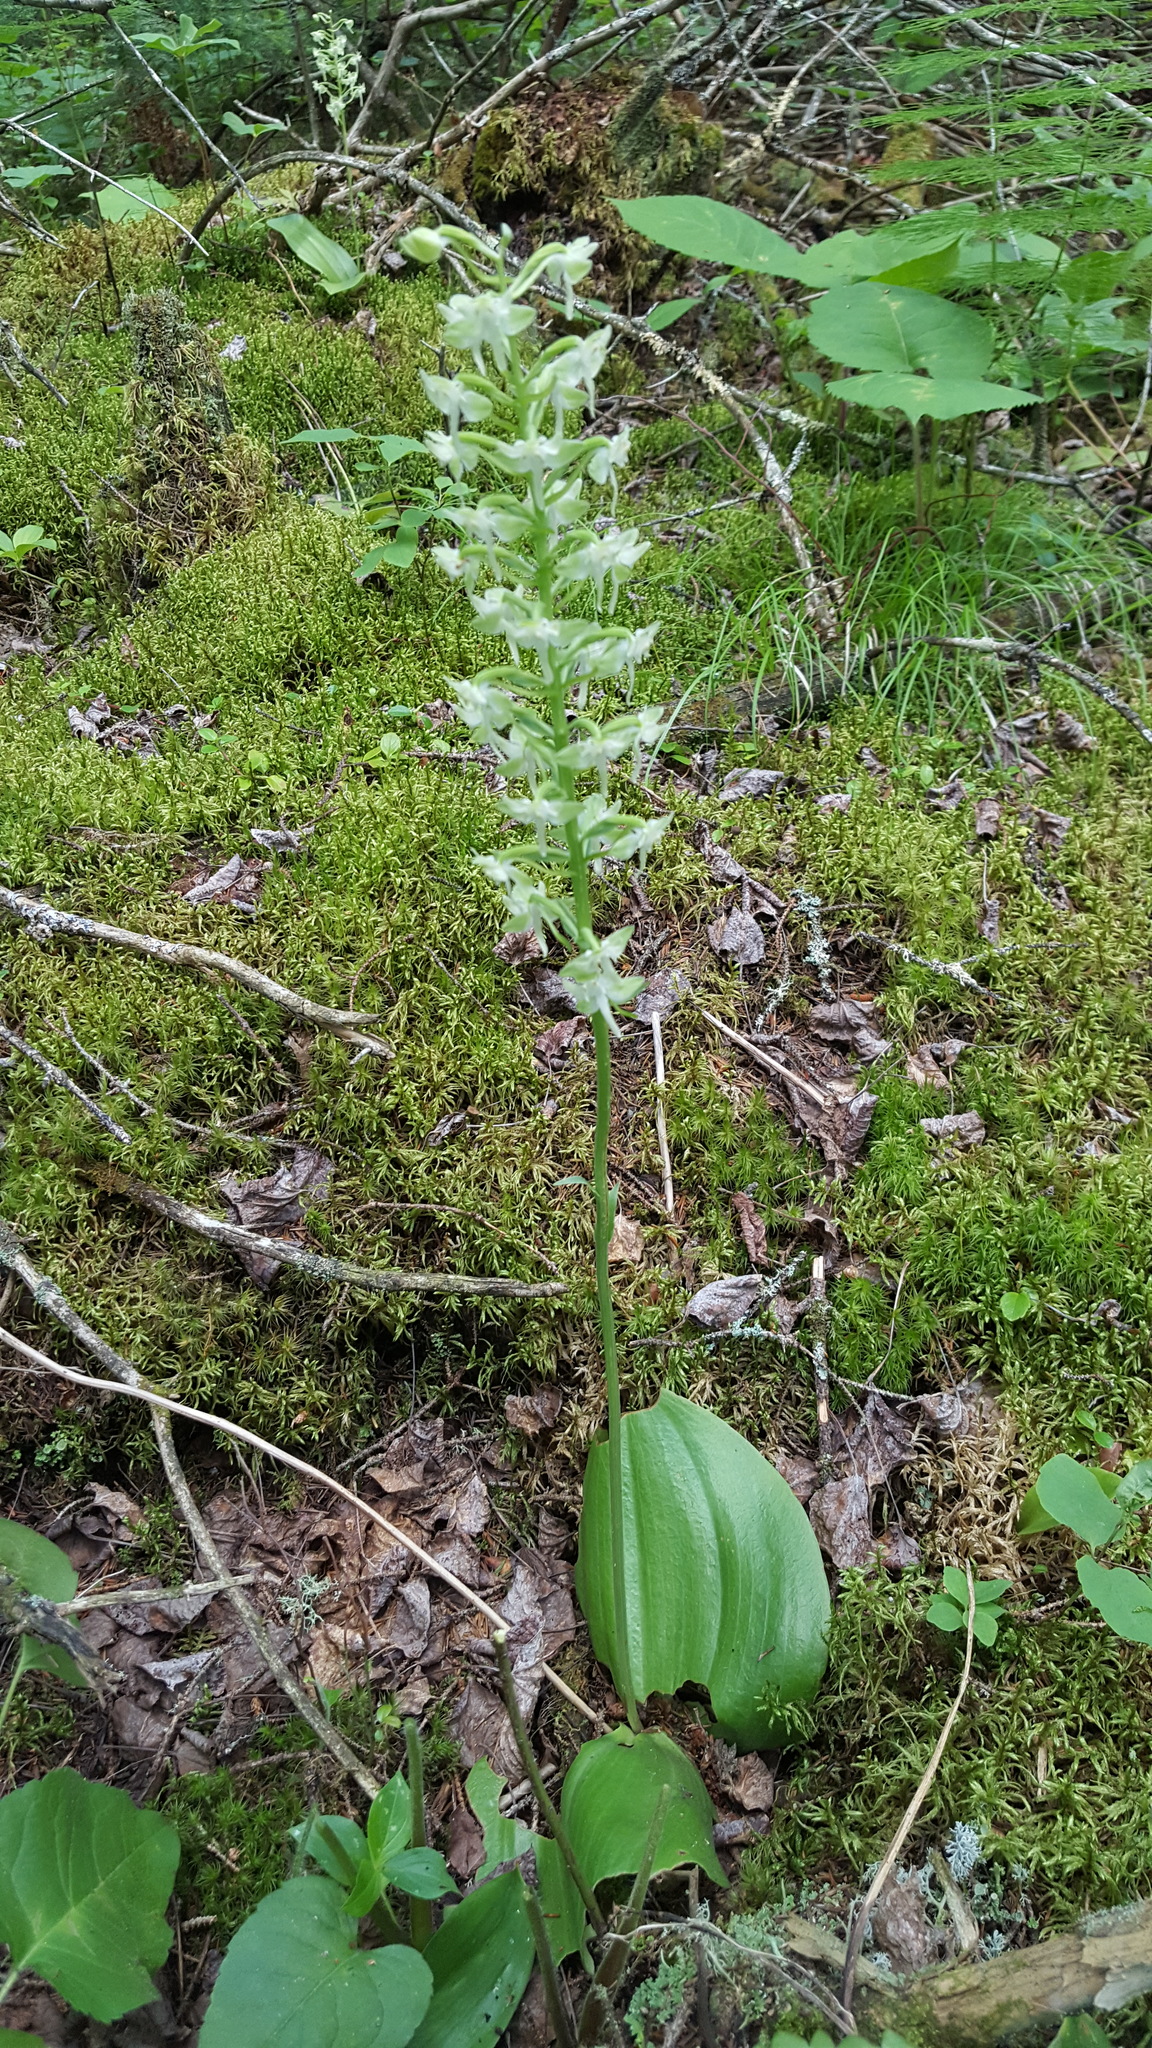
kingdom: Plantae
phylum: Tracheophyta
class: Liliopsida
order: Asparagales
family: Orchidaceae
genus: Platanthera
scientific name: Platanthera orbiculata
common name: Large round-leaved orchid
